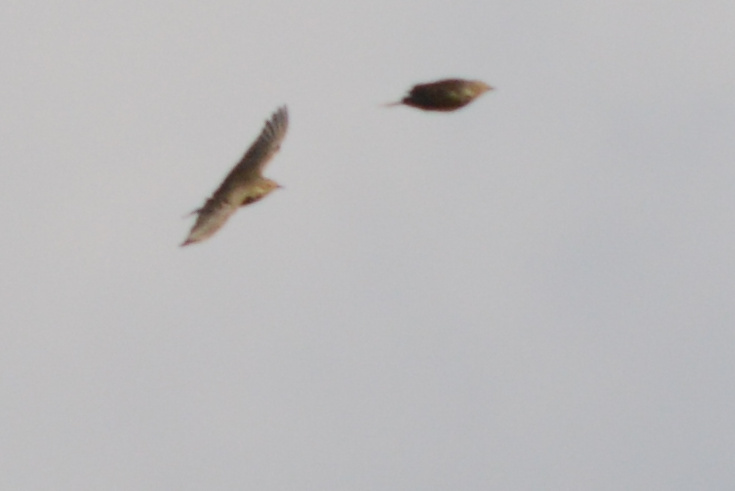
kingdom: Animalia
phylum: Chordata
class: Aves
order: Passeriformes
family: Motacillidae
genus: Anthus
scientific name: Anthus rubescens
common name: Buff-bellied pipit
